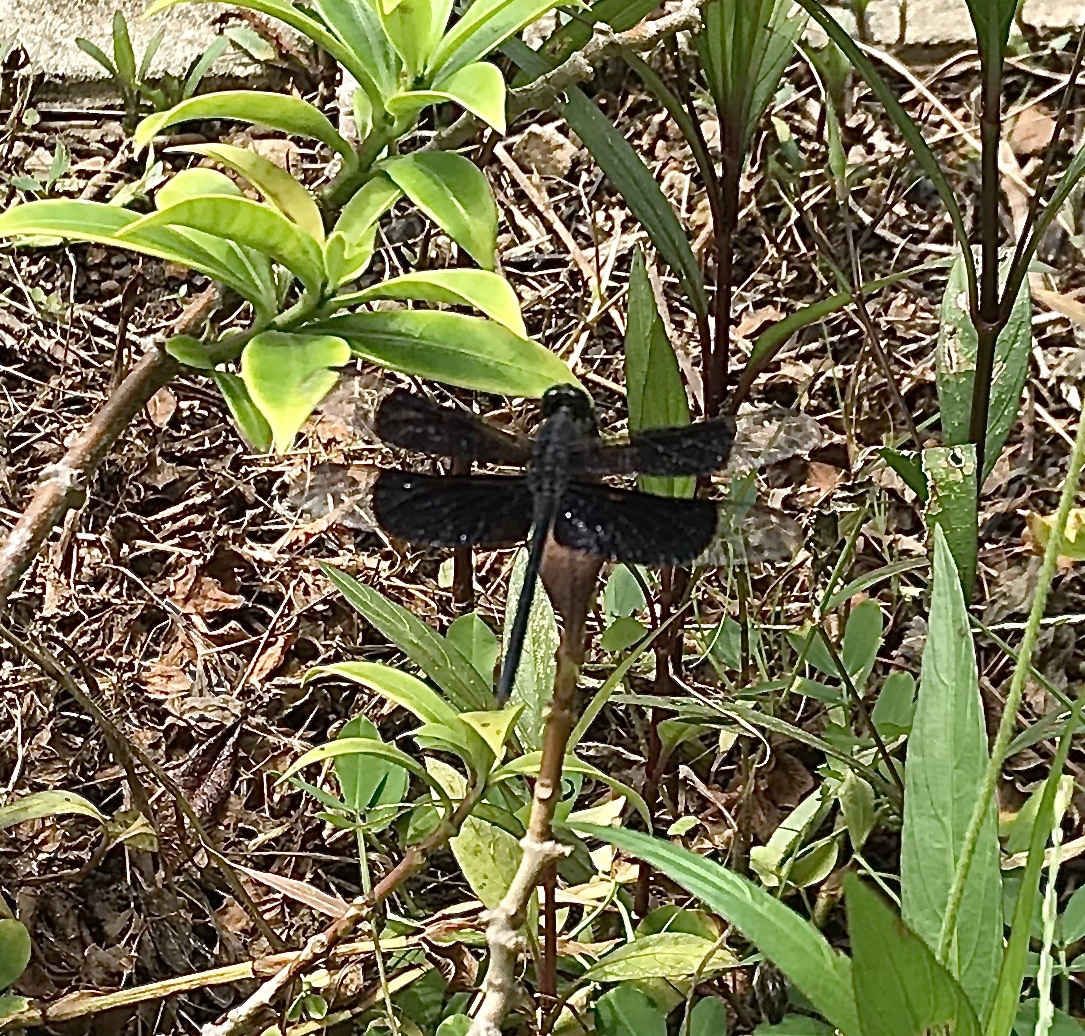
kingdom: Animalia
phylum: Arthropoda
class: Insecta
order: Odonata
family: Libellulidae
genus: Erythrodiplax
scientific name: Erythrodiplax funerea
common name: Black-winged dragonlet
